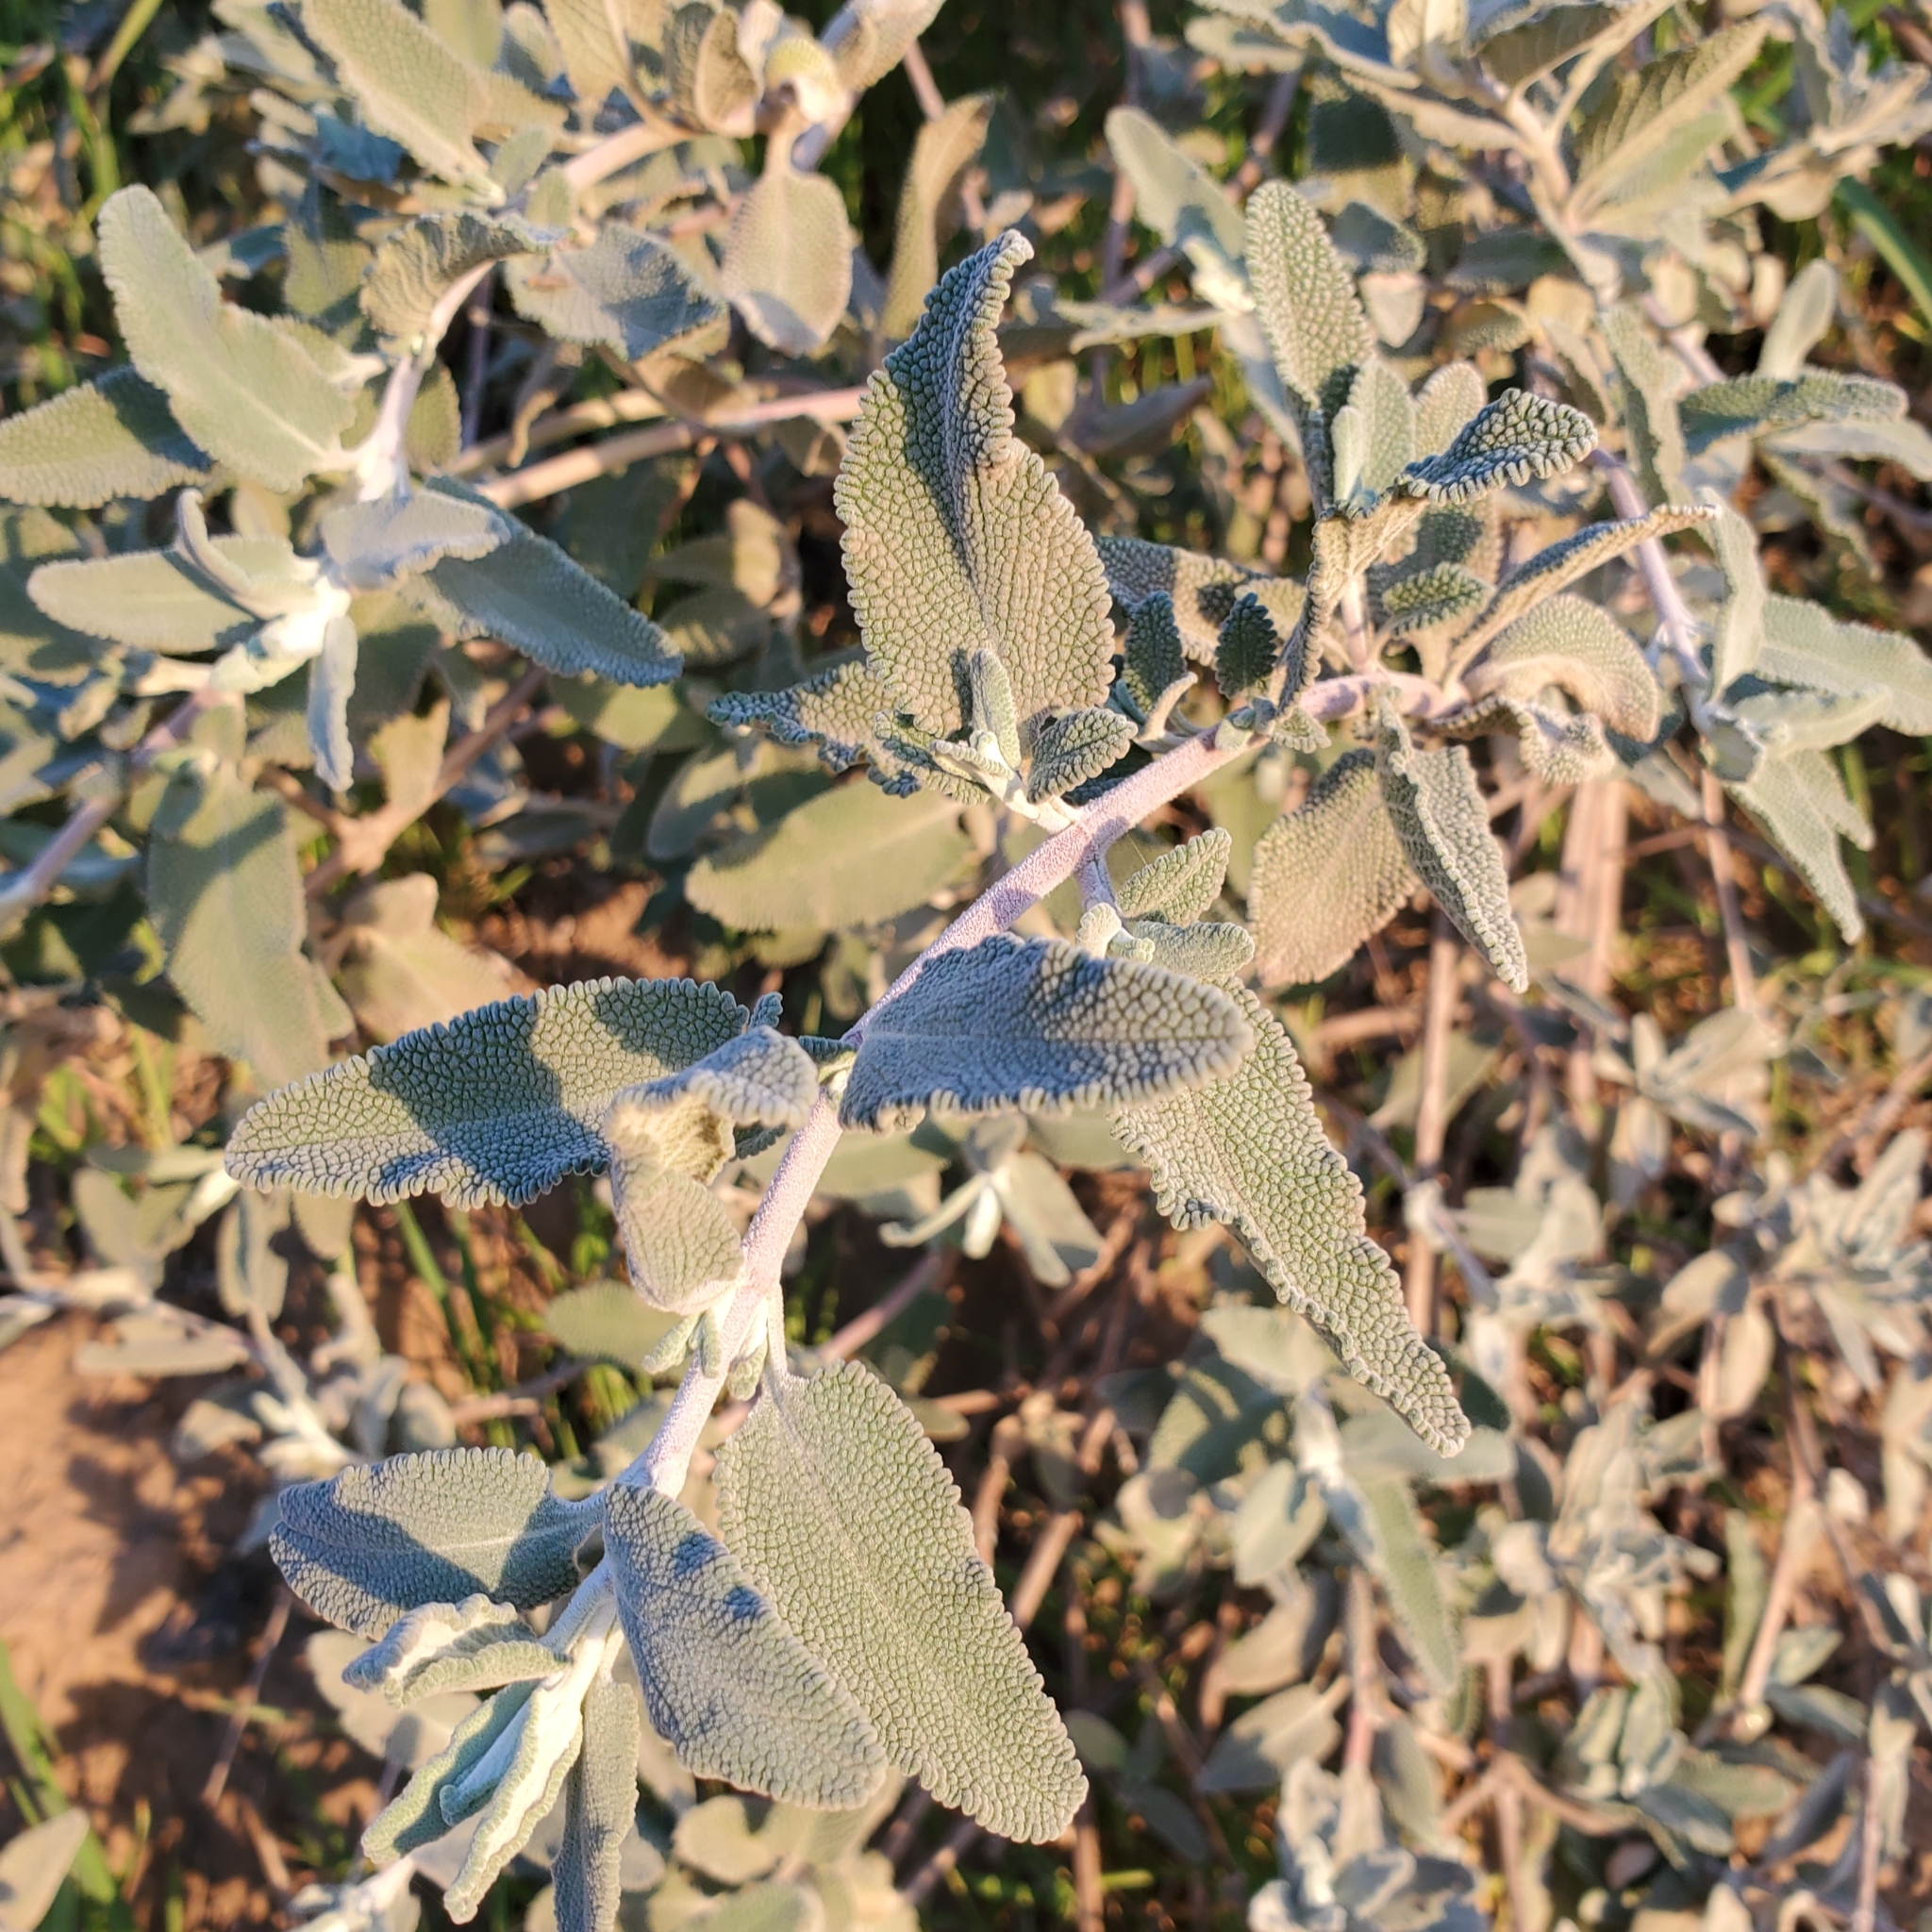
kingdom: Plantae
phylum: Tracheophyta
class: Magnoliopsida
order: Lamiales
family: Lamiaceae
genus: Salvia
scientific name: Salvia leucophylla
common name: Purple sage
